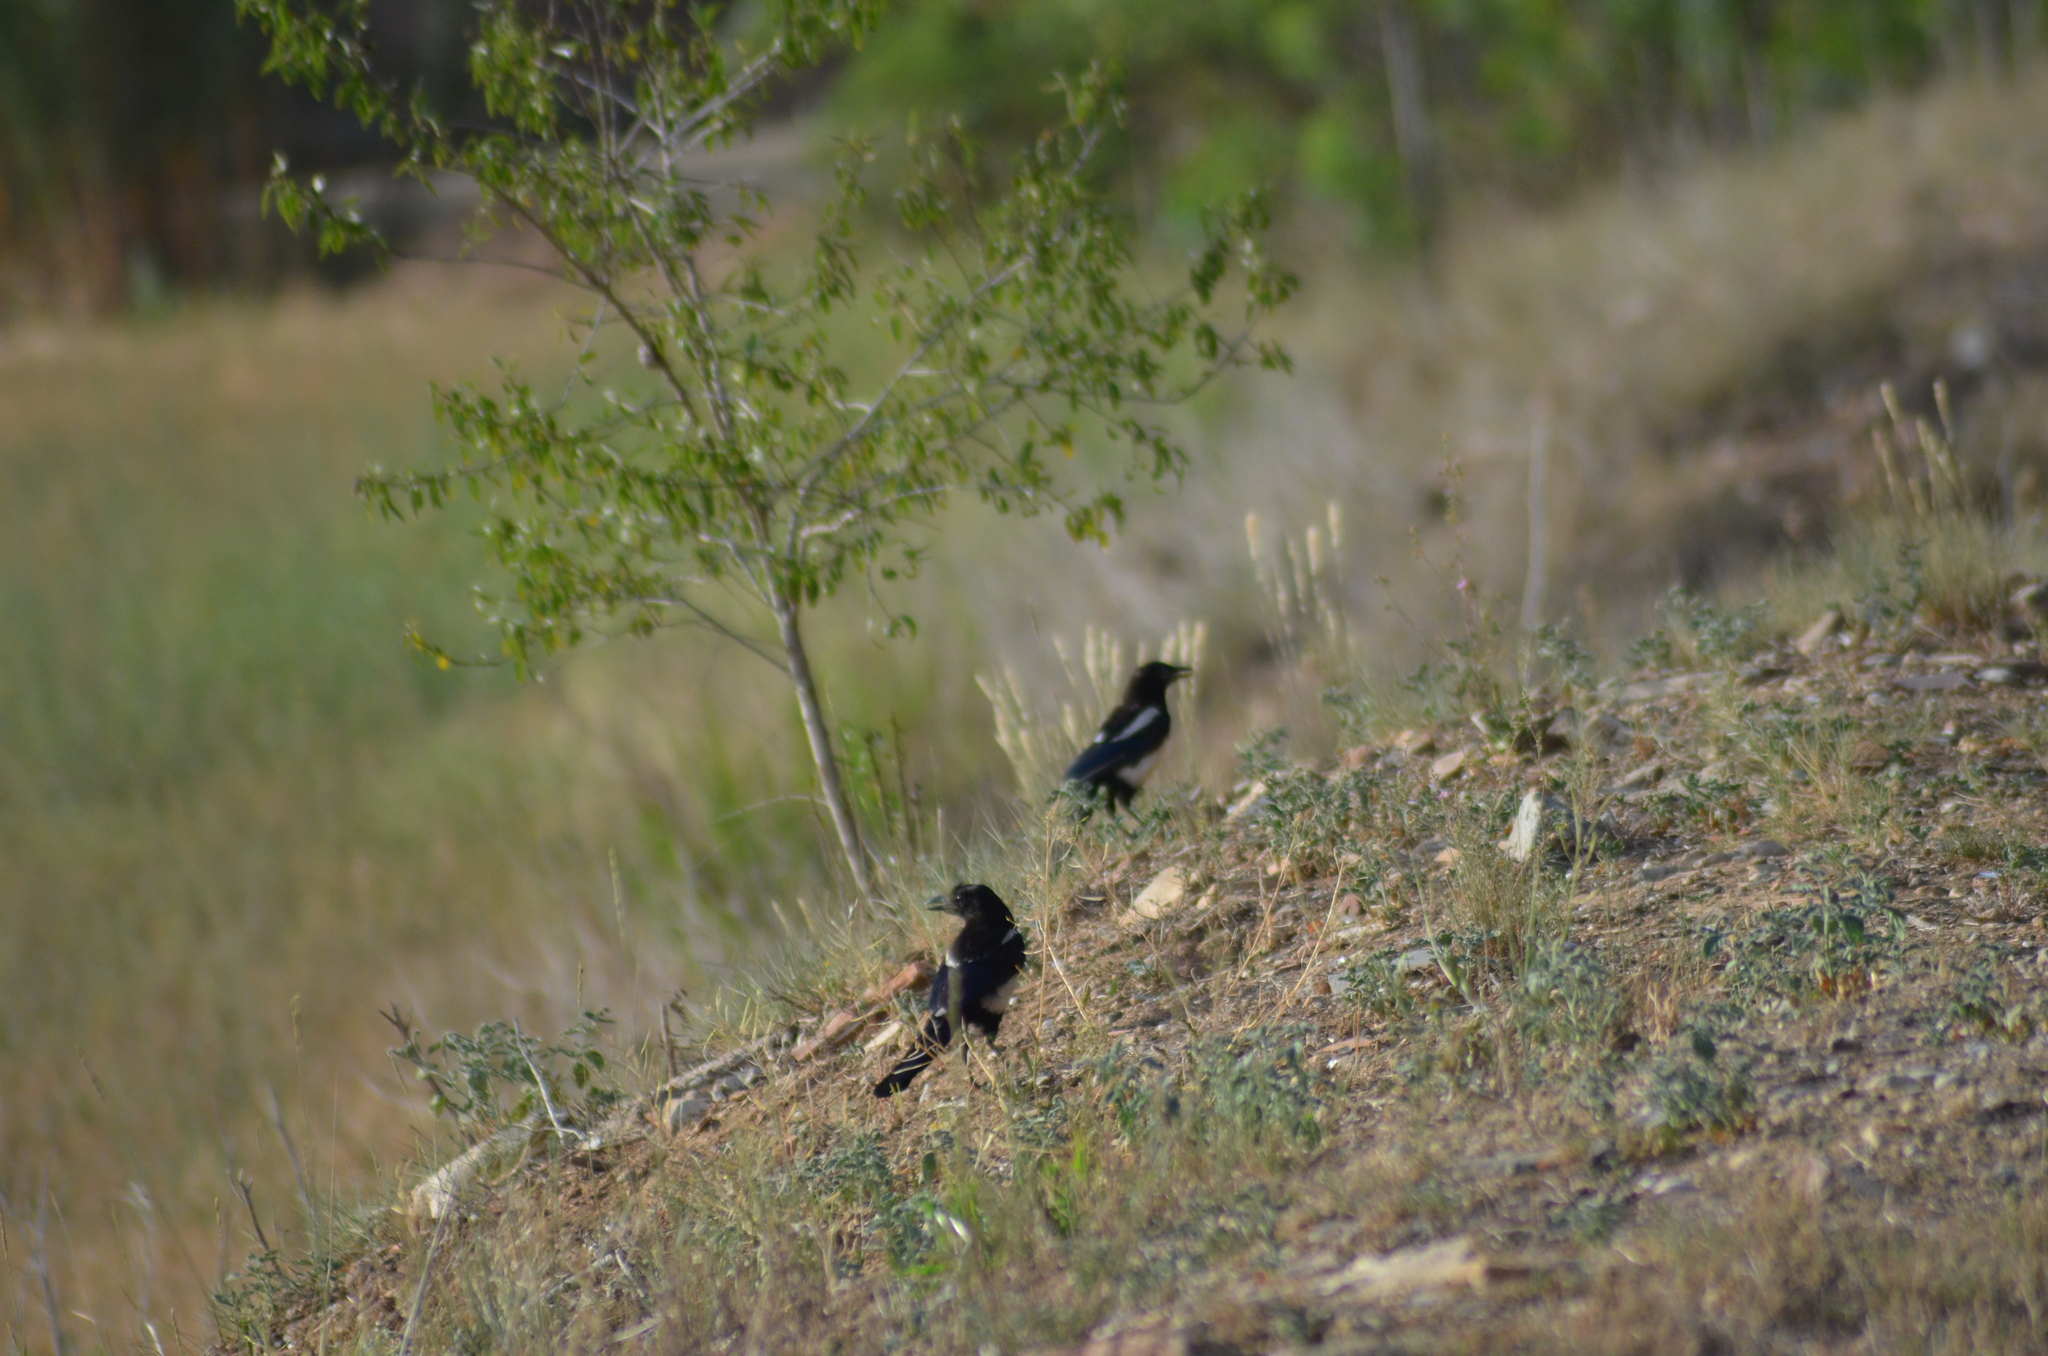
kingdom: Animalia
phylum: Chordata
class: Aves
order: Passeriformes
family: Corvidae
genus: Pica
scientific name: Pica pica
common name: Eurasian magpie
